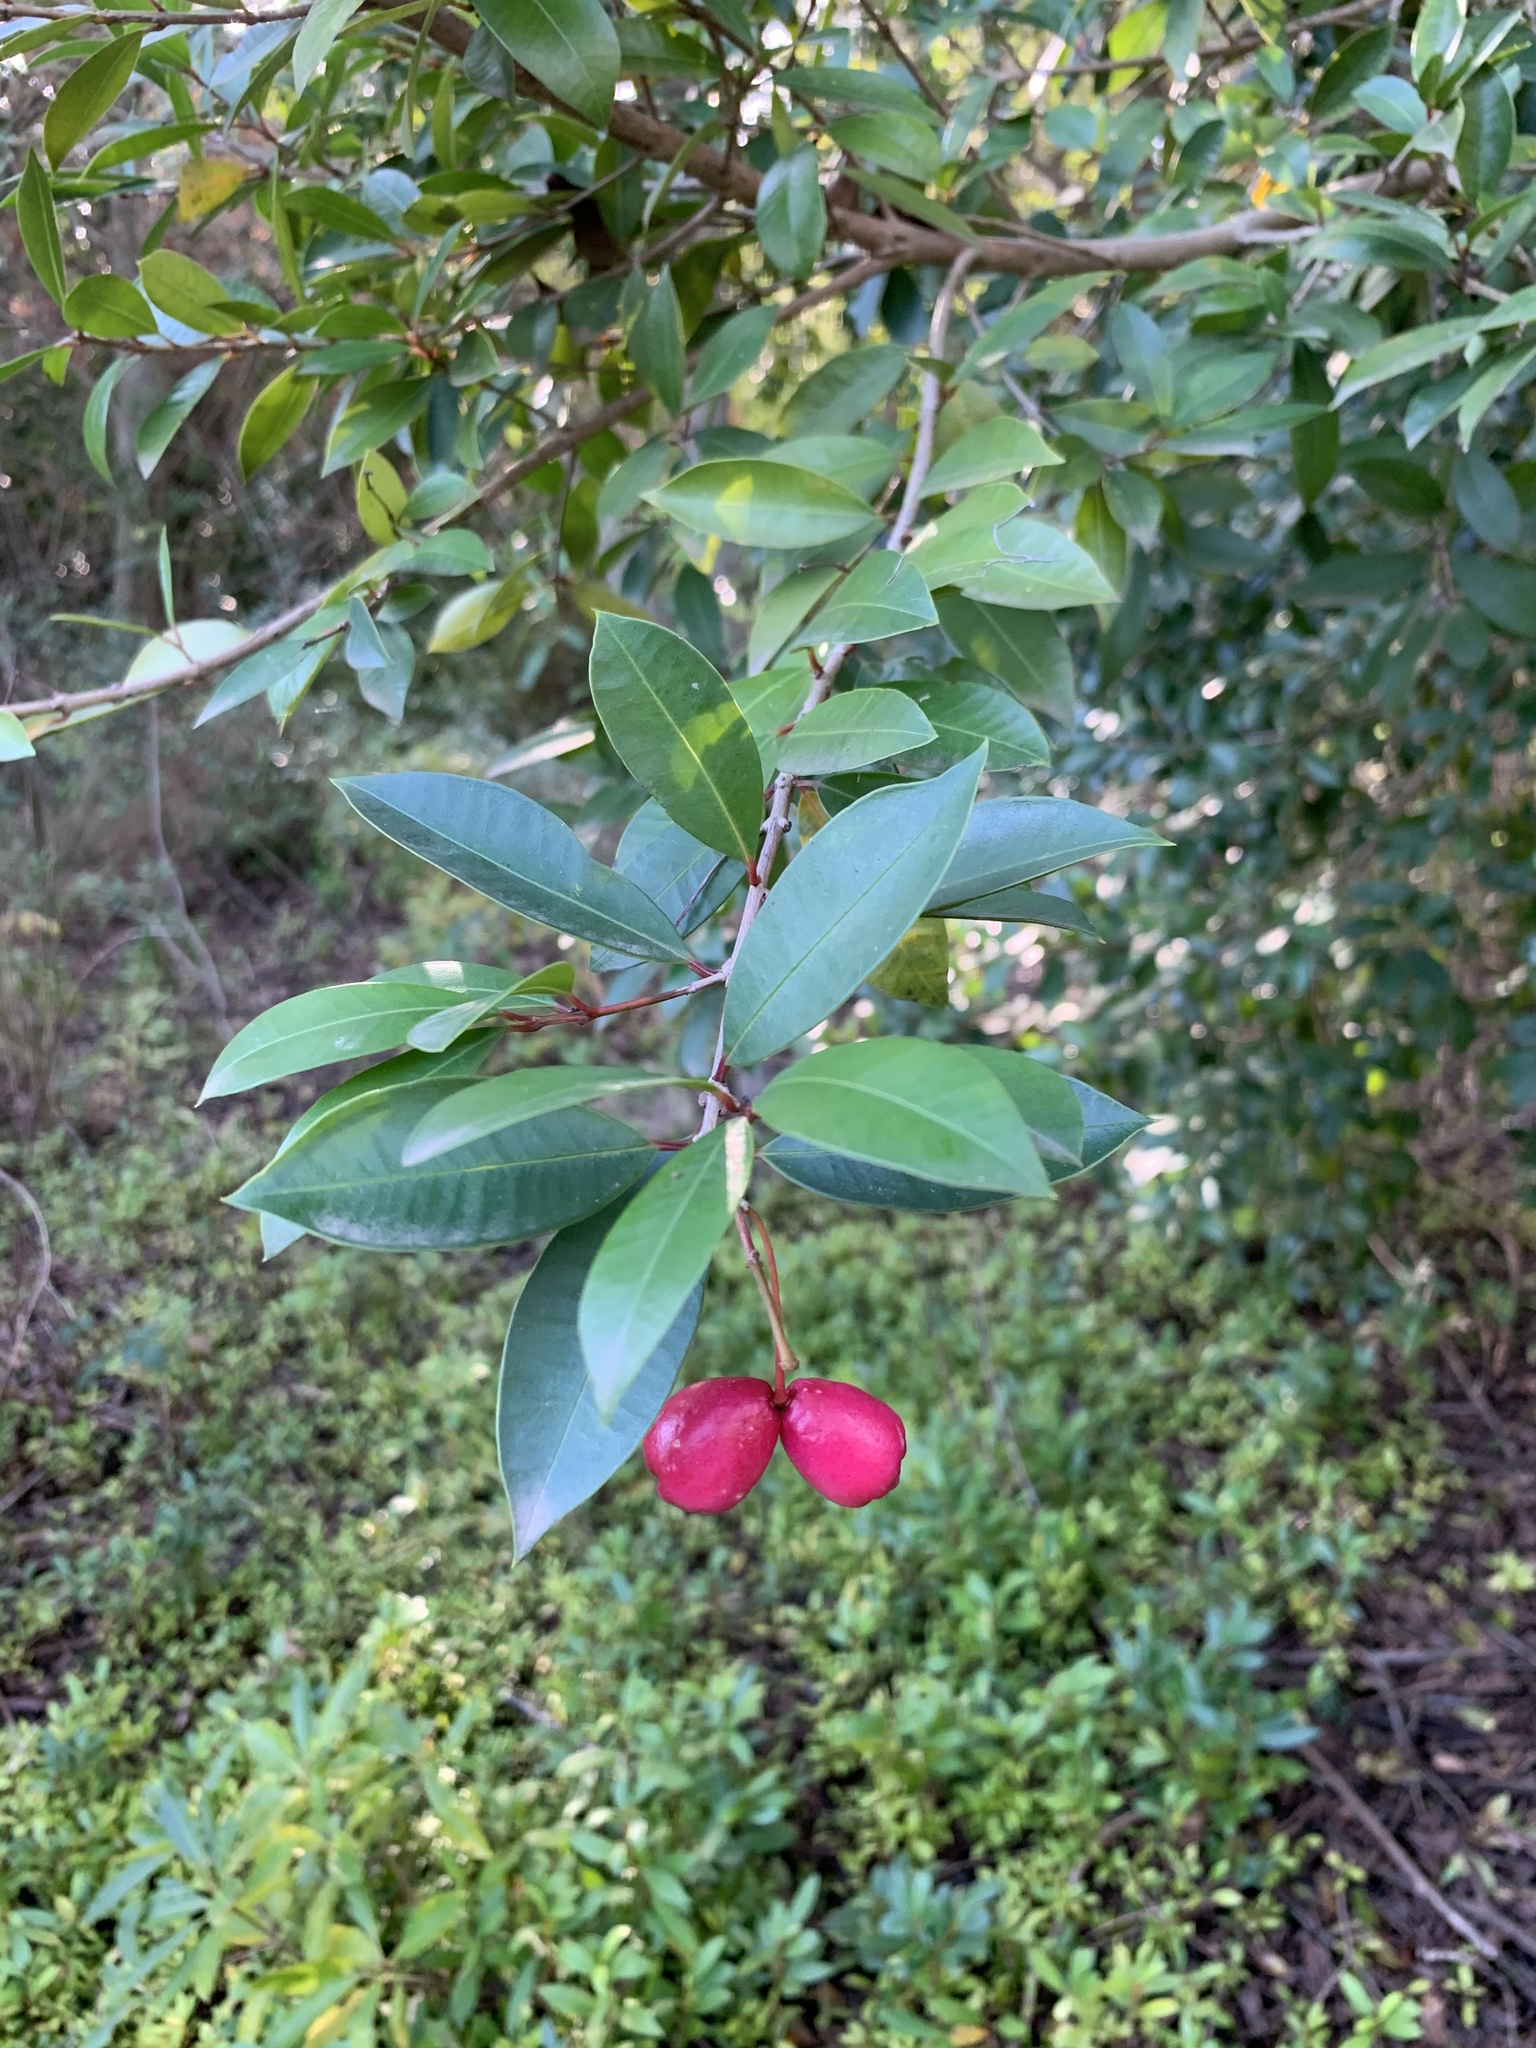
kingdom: Plantae
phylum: Tracheophyta
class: Magnoliopsida
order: Myrtales
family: Myrtaceae
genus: Syzygium
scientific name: Syzygium australe
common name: Australian brush-cherry
